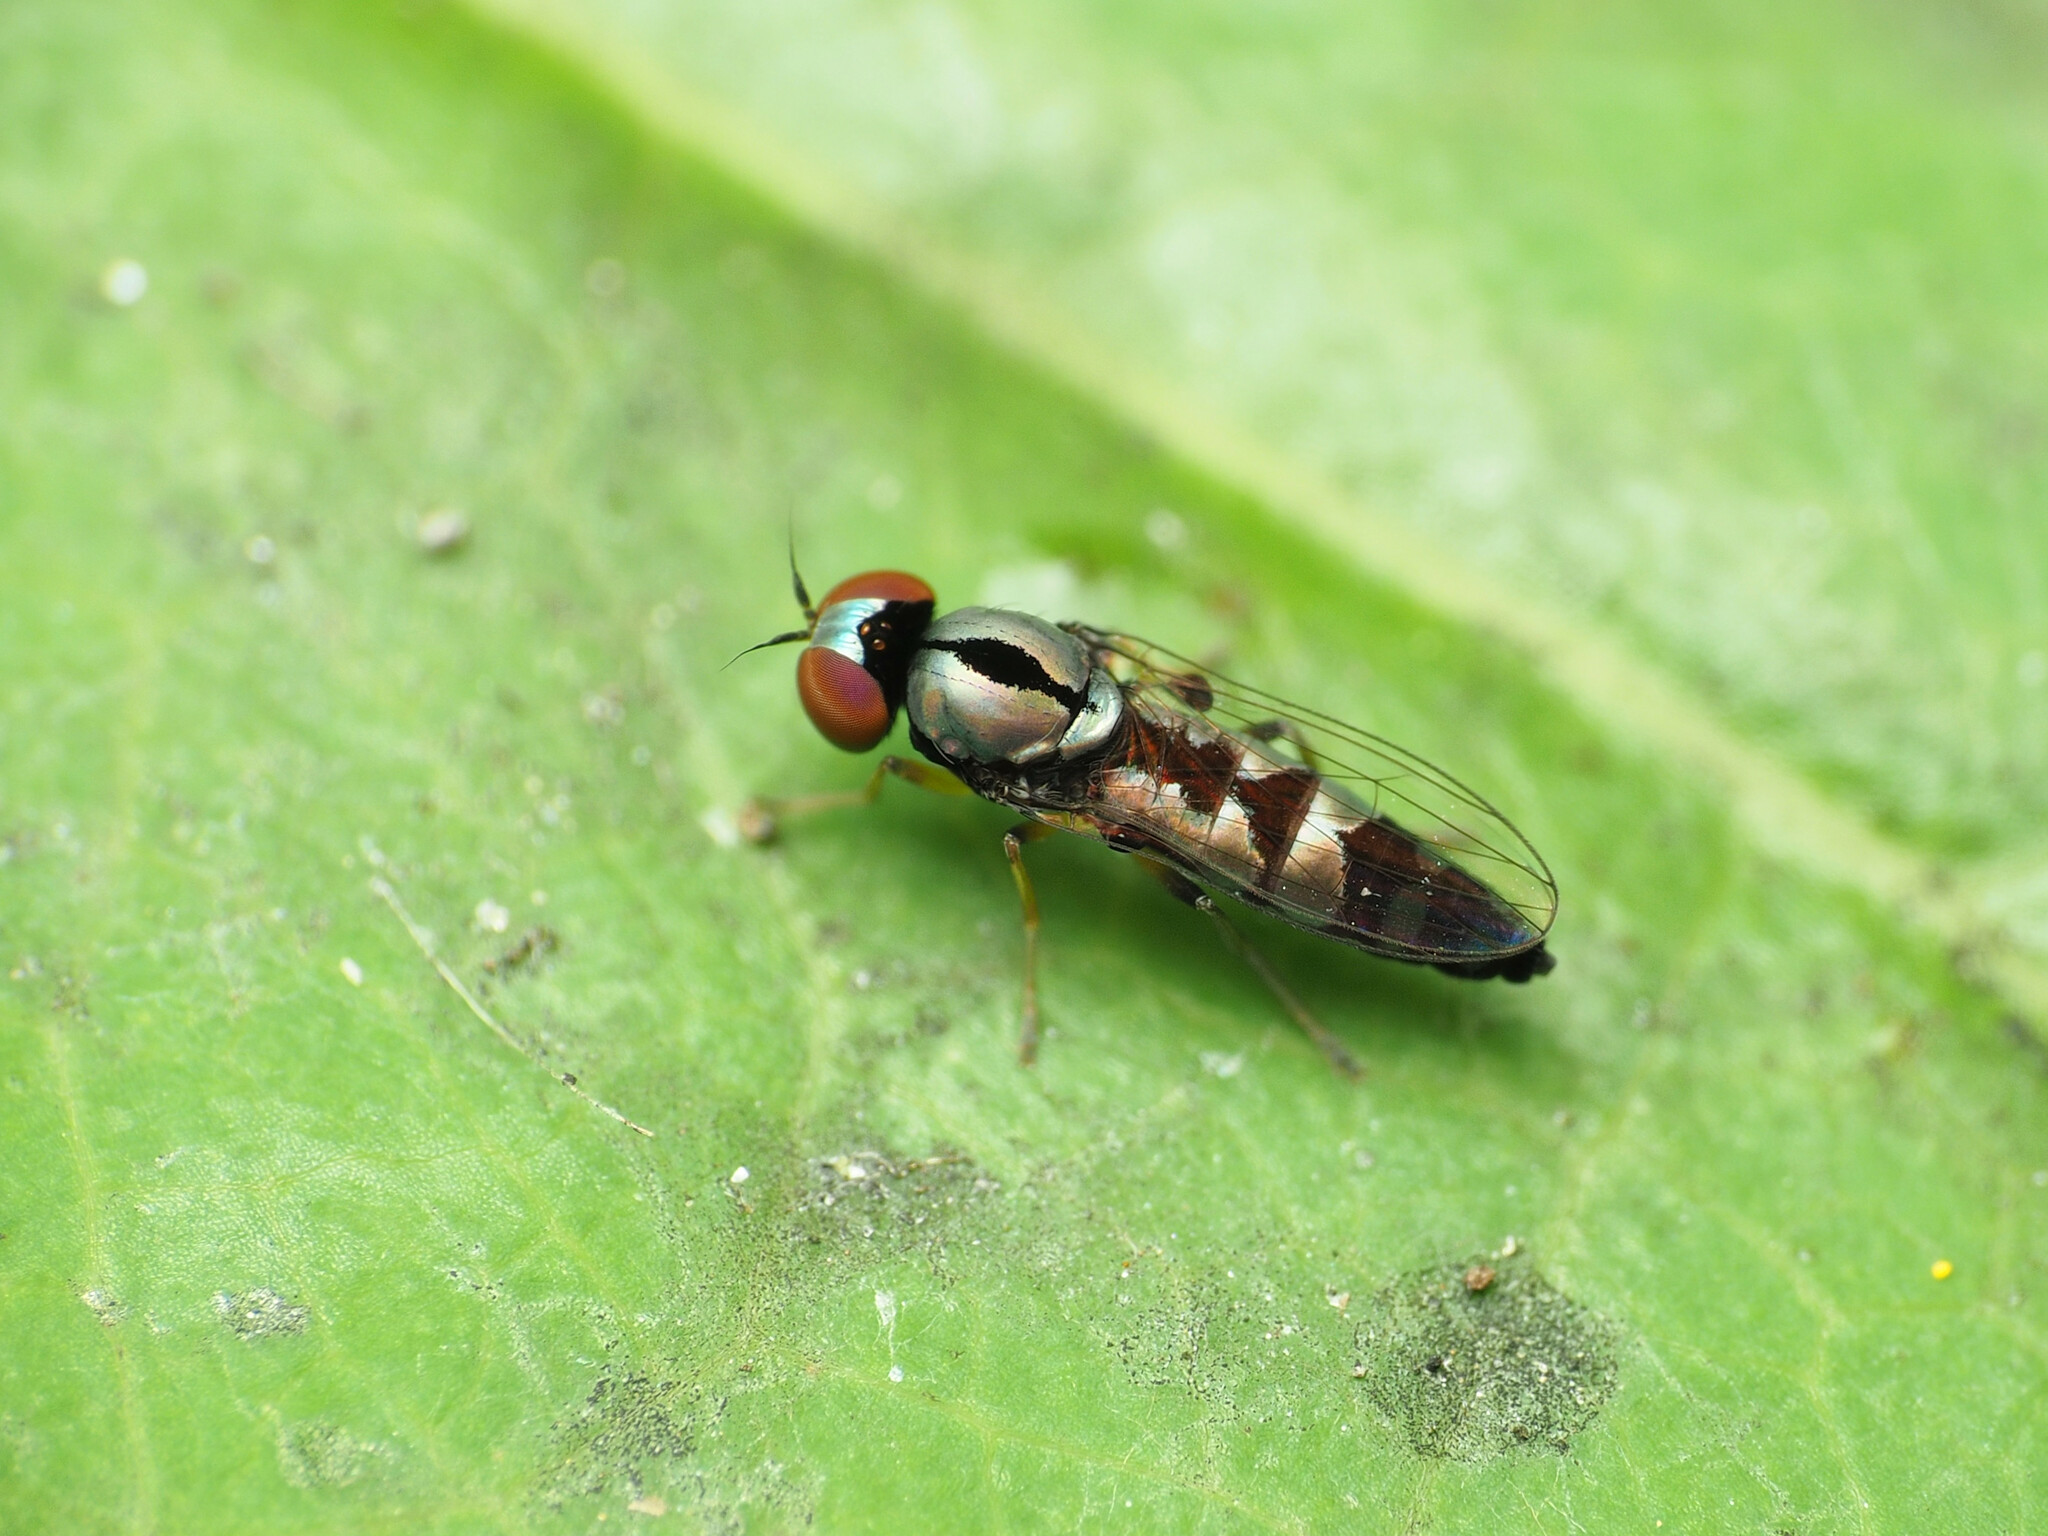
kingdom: Animalia
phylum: Arthropoda
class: Insecta
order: Diptera
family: Platypezidae
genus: Bertamyia
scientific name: Bertamyia notata
